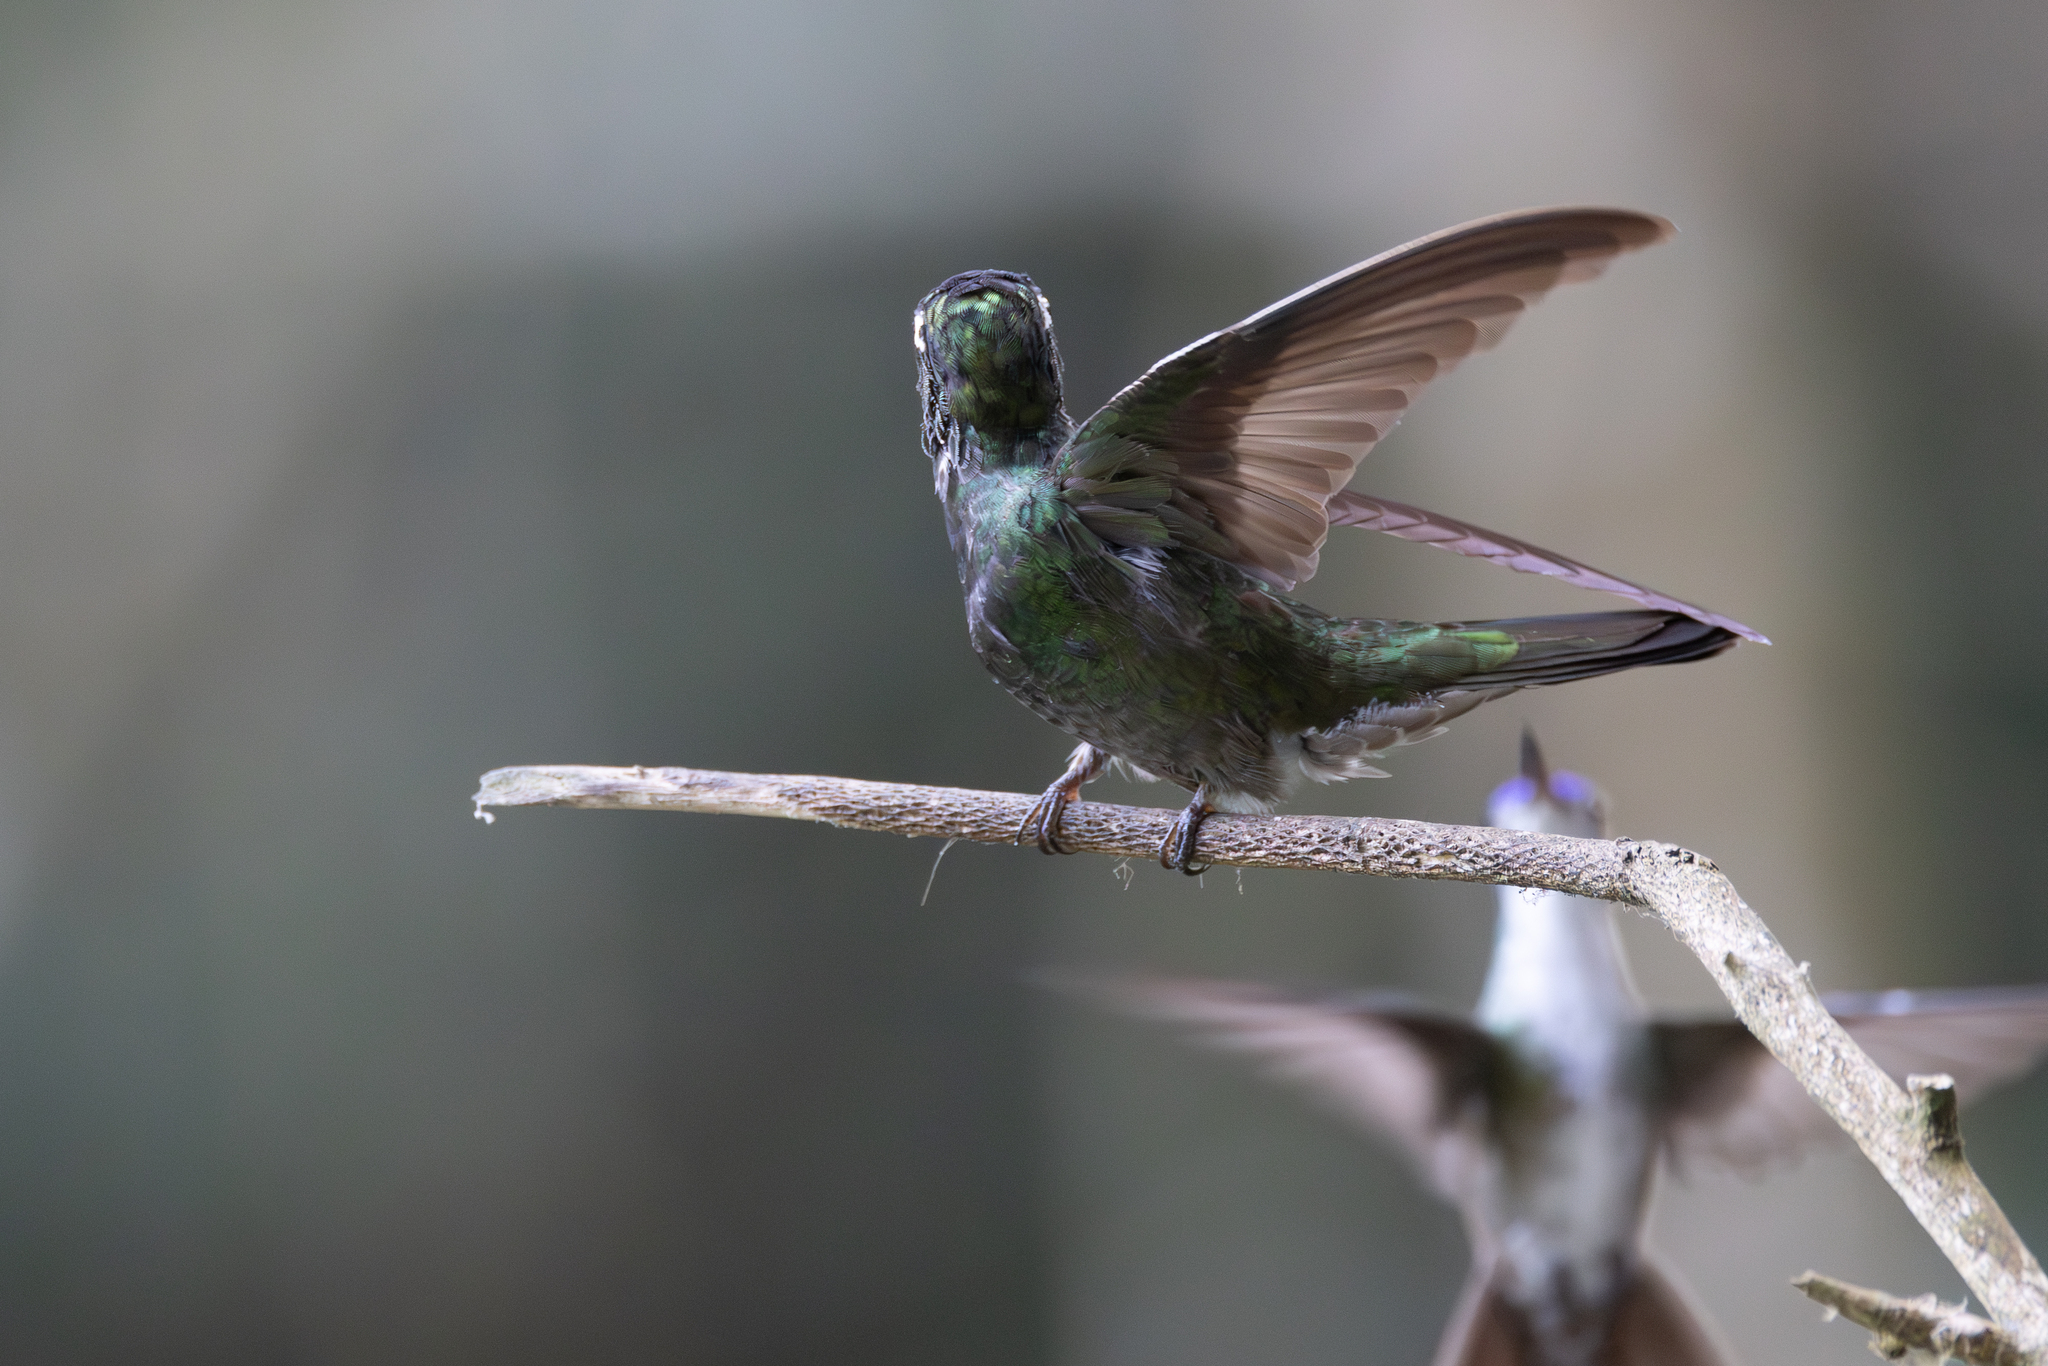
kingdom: Animalia
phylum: Chordata
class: Aves
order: Apodiformes
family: Trochilidae
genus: Eugenes
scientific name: Eugenes fulgens
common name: Magnificent hummingbird
